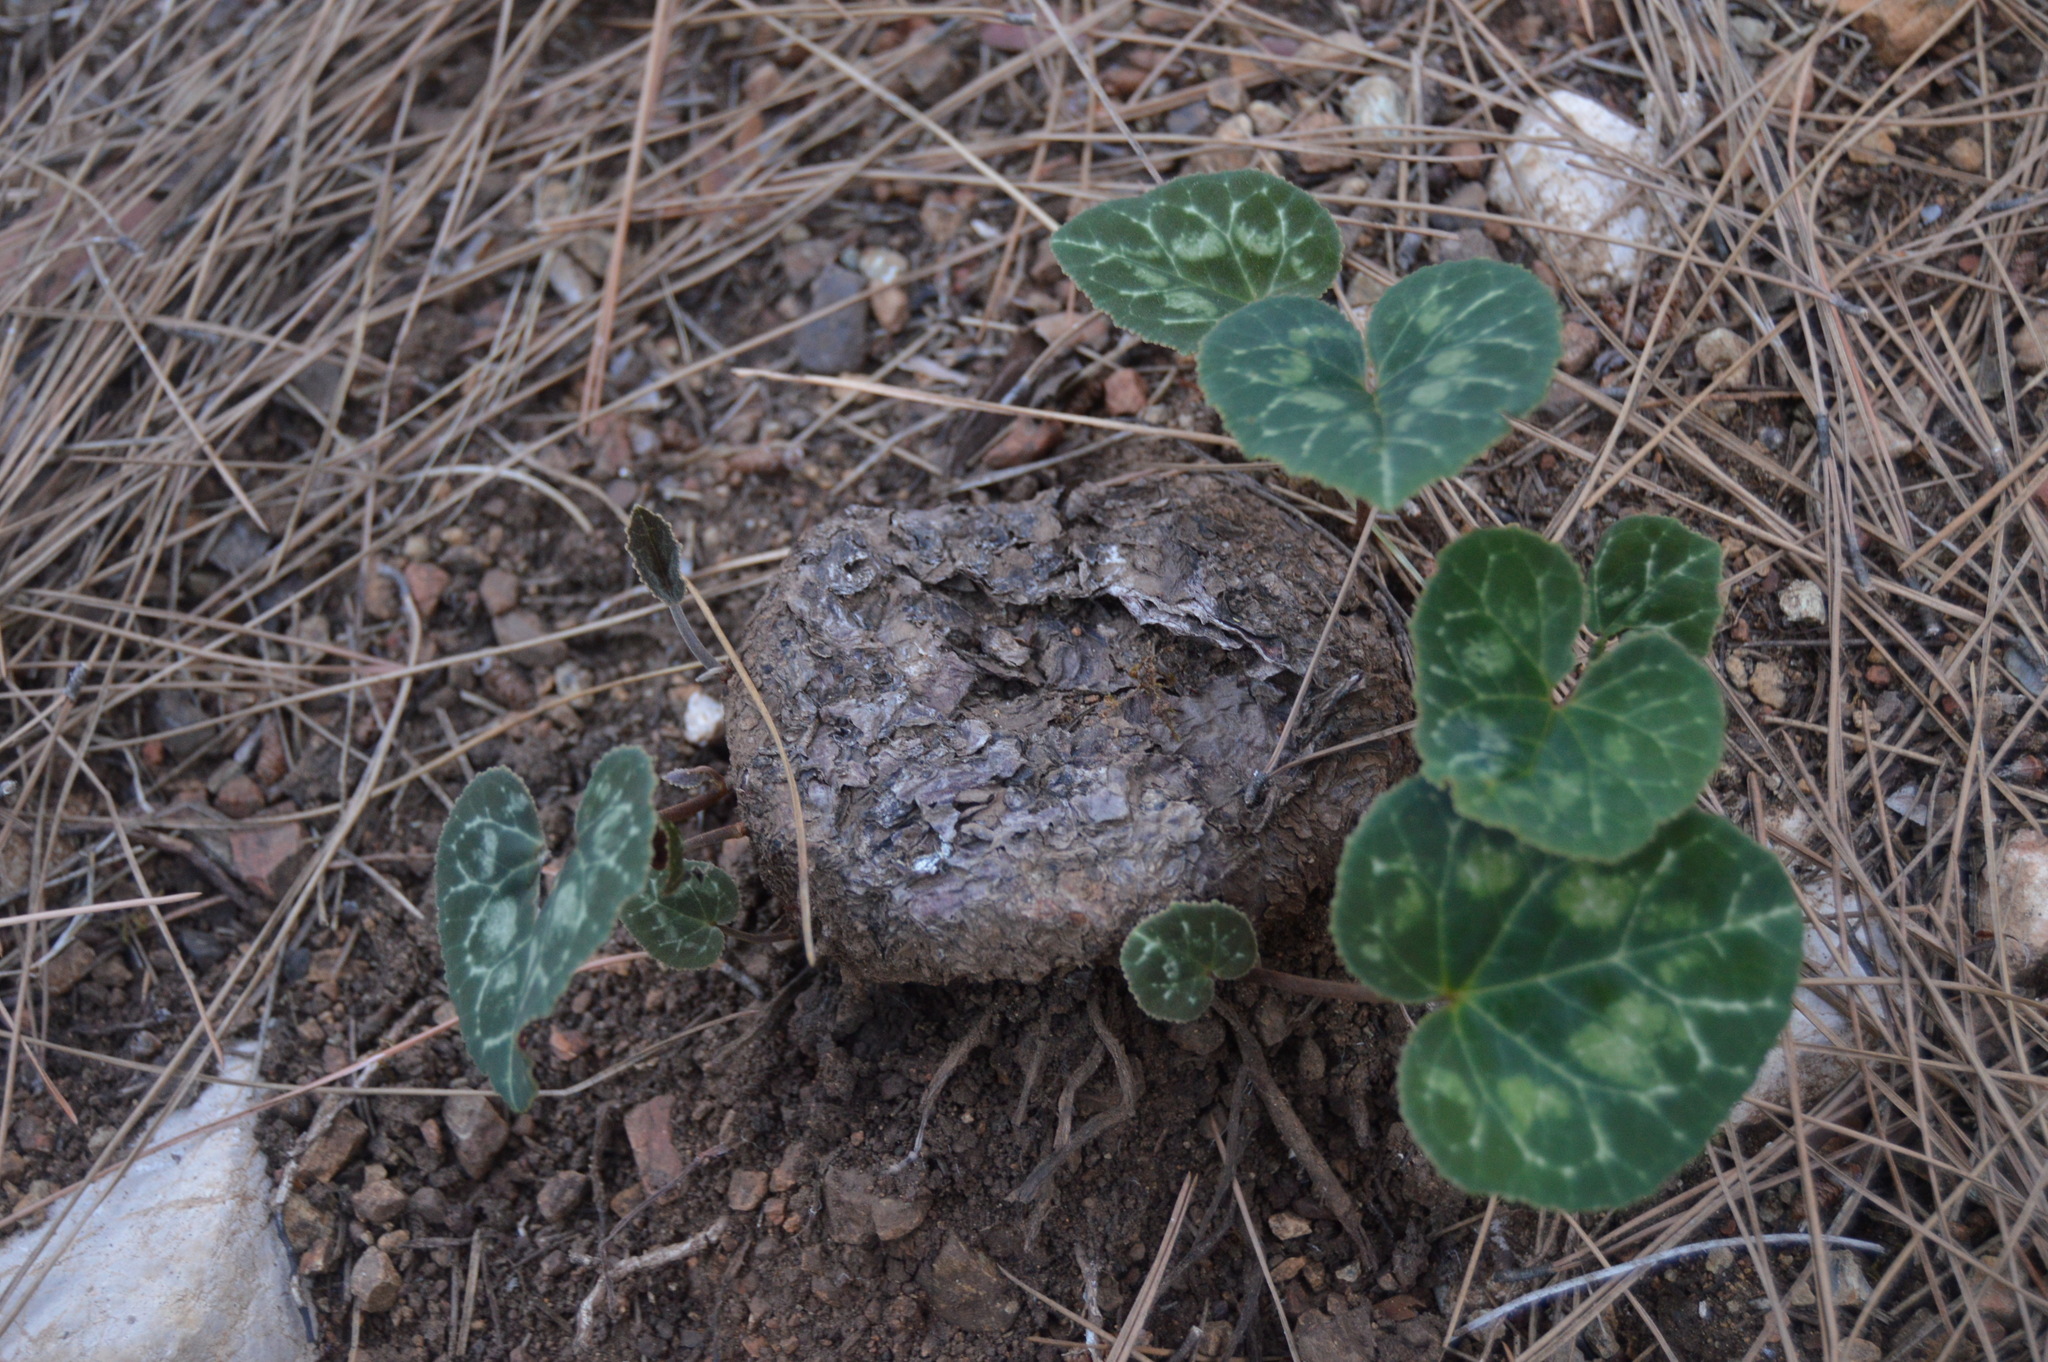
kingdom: Plantae
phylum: Tracheophyta
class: Magnoliopsida
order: Ericales
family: Primulaceae
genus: Cyclamen
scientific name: Cyclamen graecum
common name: Greek cyclamen
